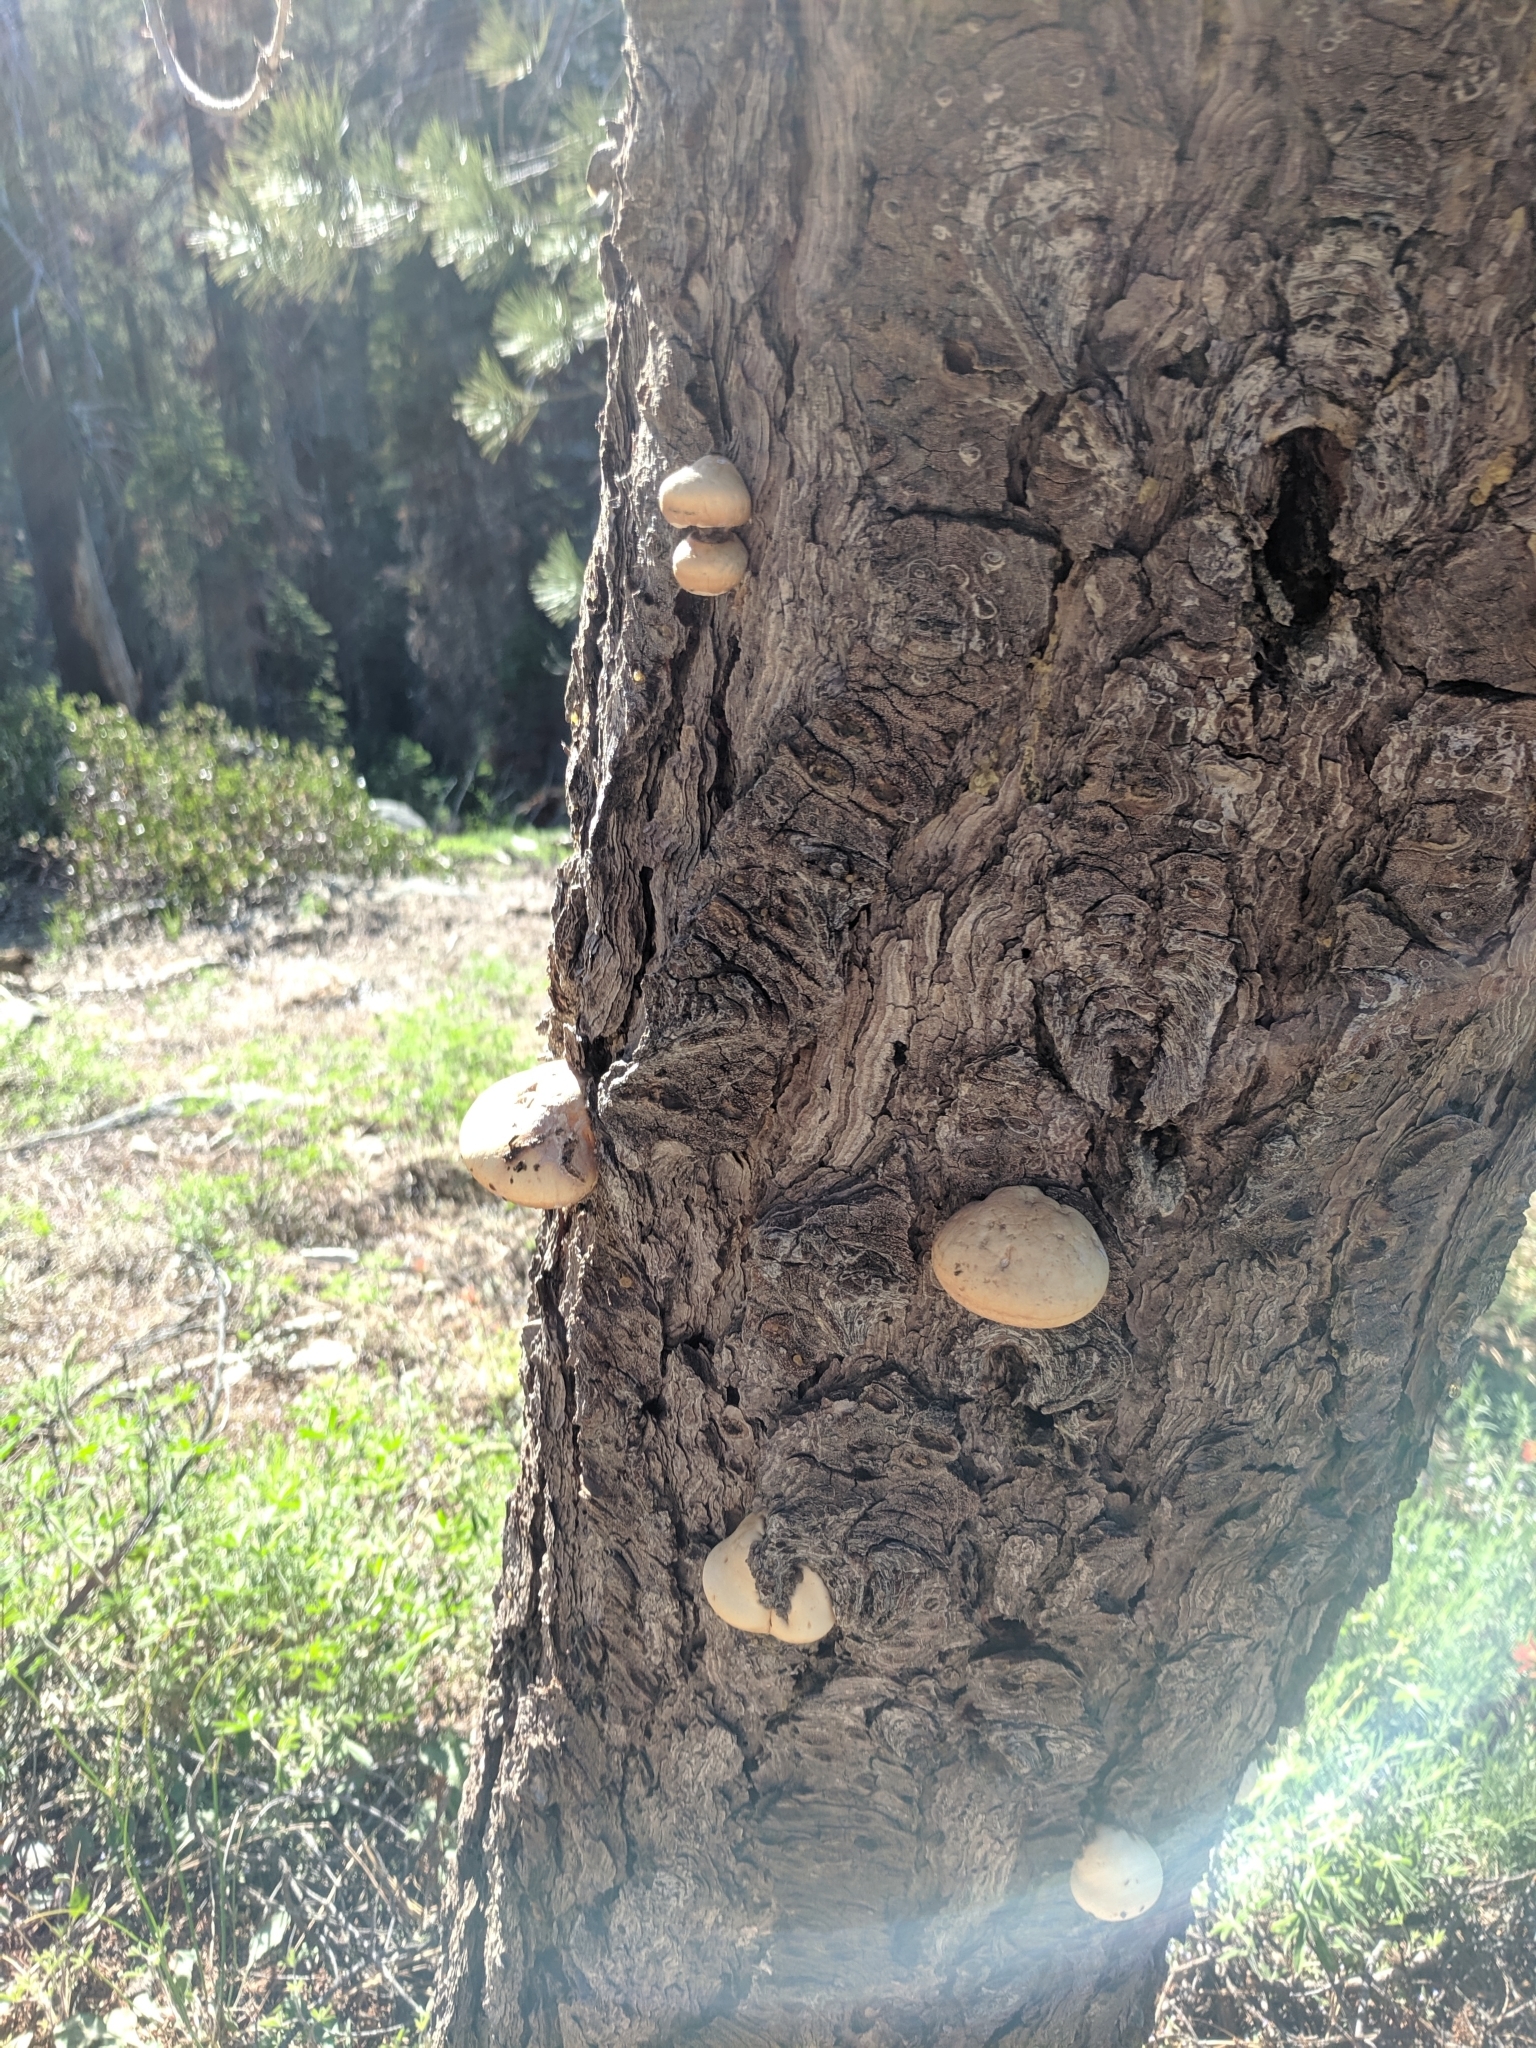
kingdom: Fungi
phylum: Basidiomycota
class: Agaricomycetes
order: Polyporales
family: Polyporaceae
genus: Cryptoporus
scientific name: Cryptoporus volvatus
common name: Veiled polypore
